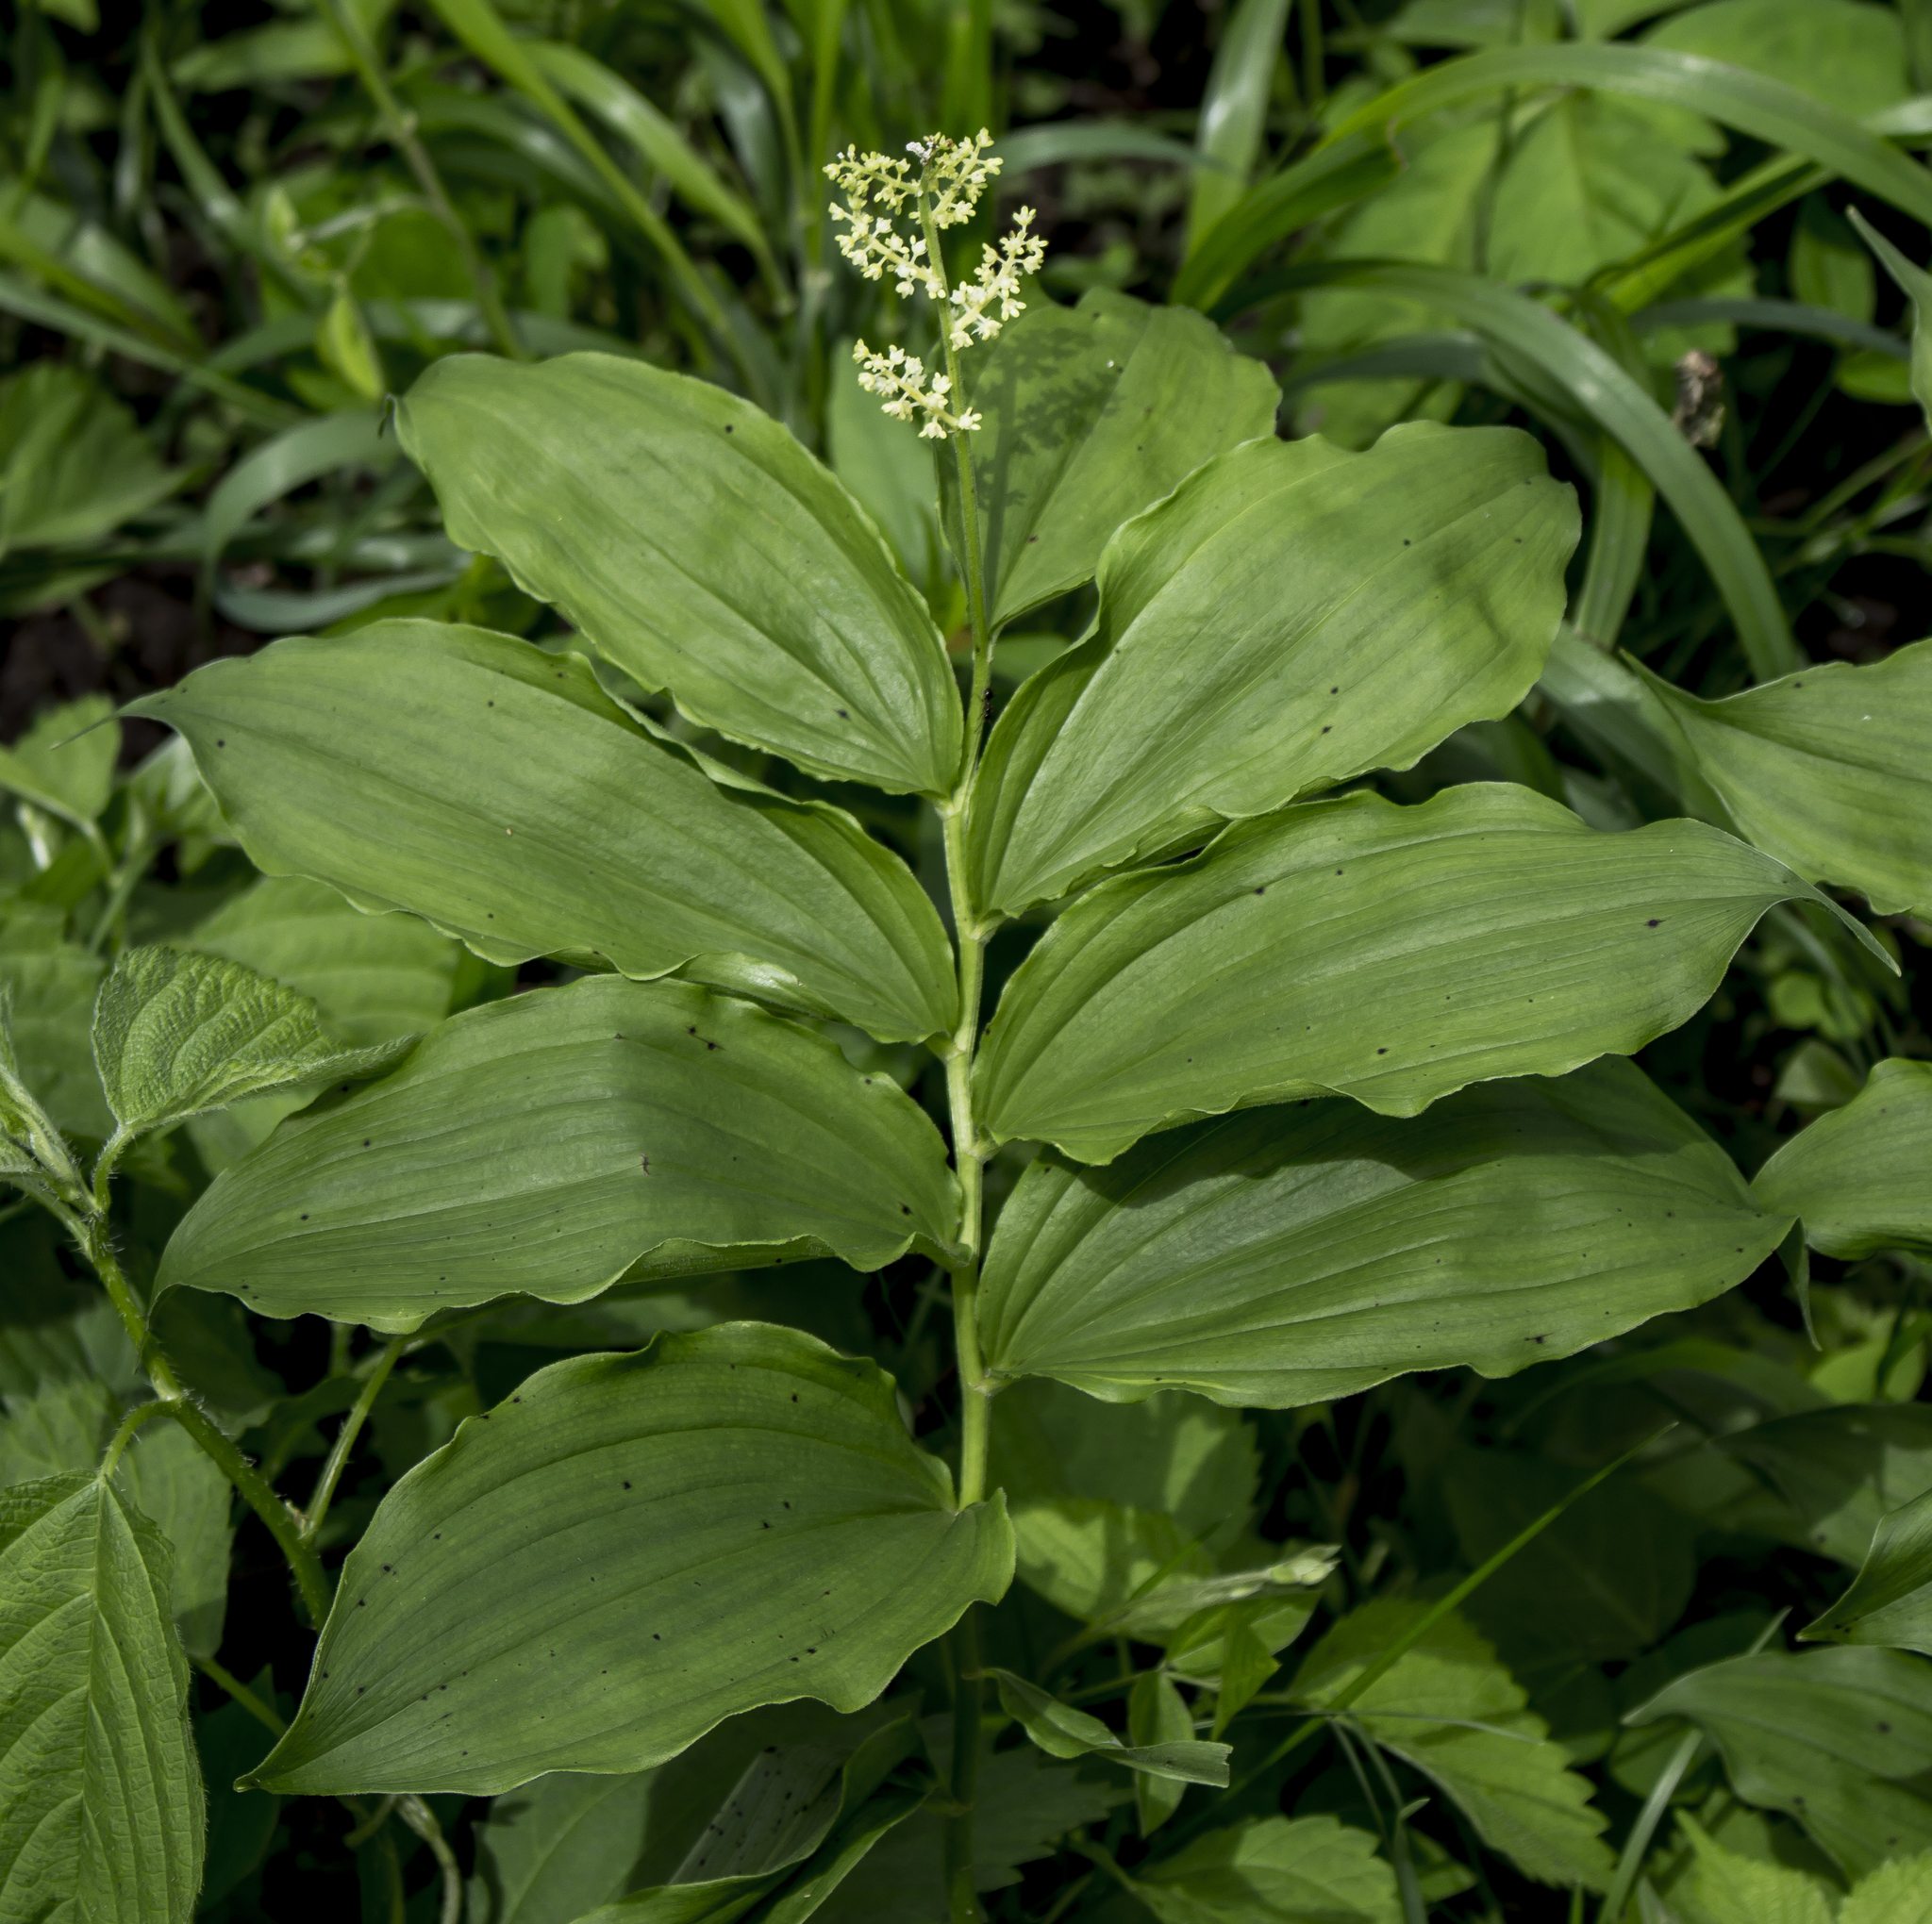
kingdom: Plantae
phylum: Tracheophyta
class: Liliopsida
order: Asparagales
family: Asparagaceae
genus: Maianthemum
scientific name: Maianthemum racemosum
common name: False spikenard
